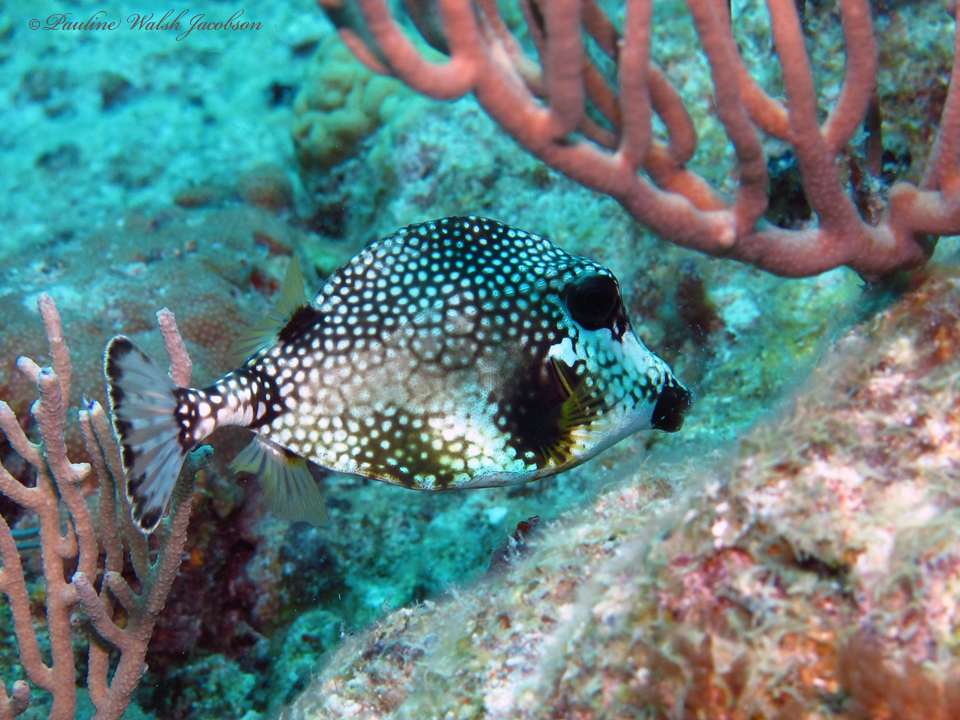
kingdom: Animalia
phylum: Chordata
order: Tetraodontiformes
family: Ostraciidae
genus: Lactophrys
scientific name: Lactophrys triqueter
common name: Smooth trunkfish
